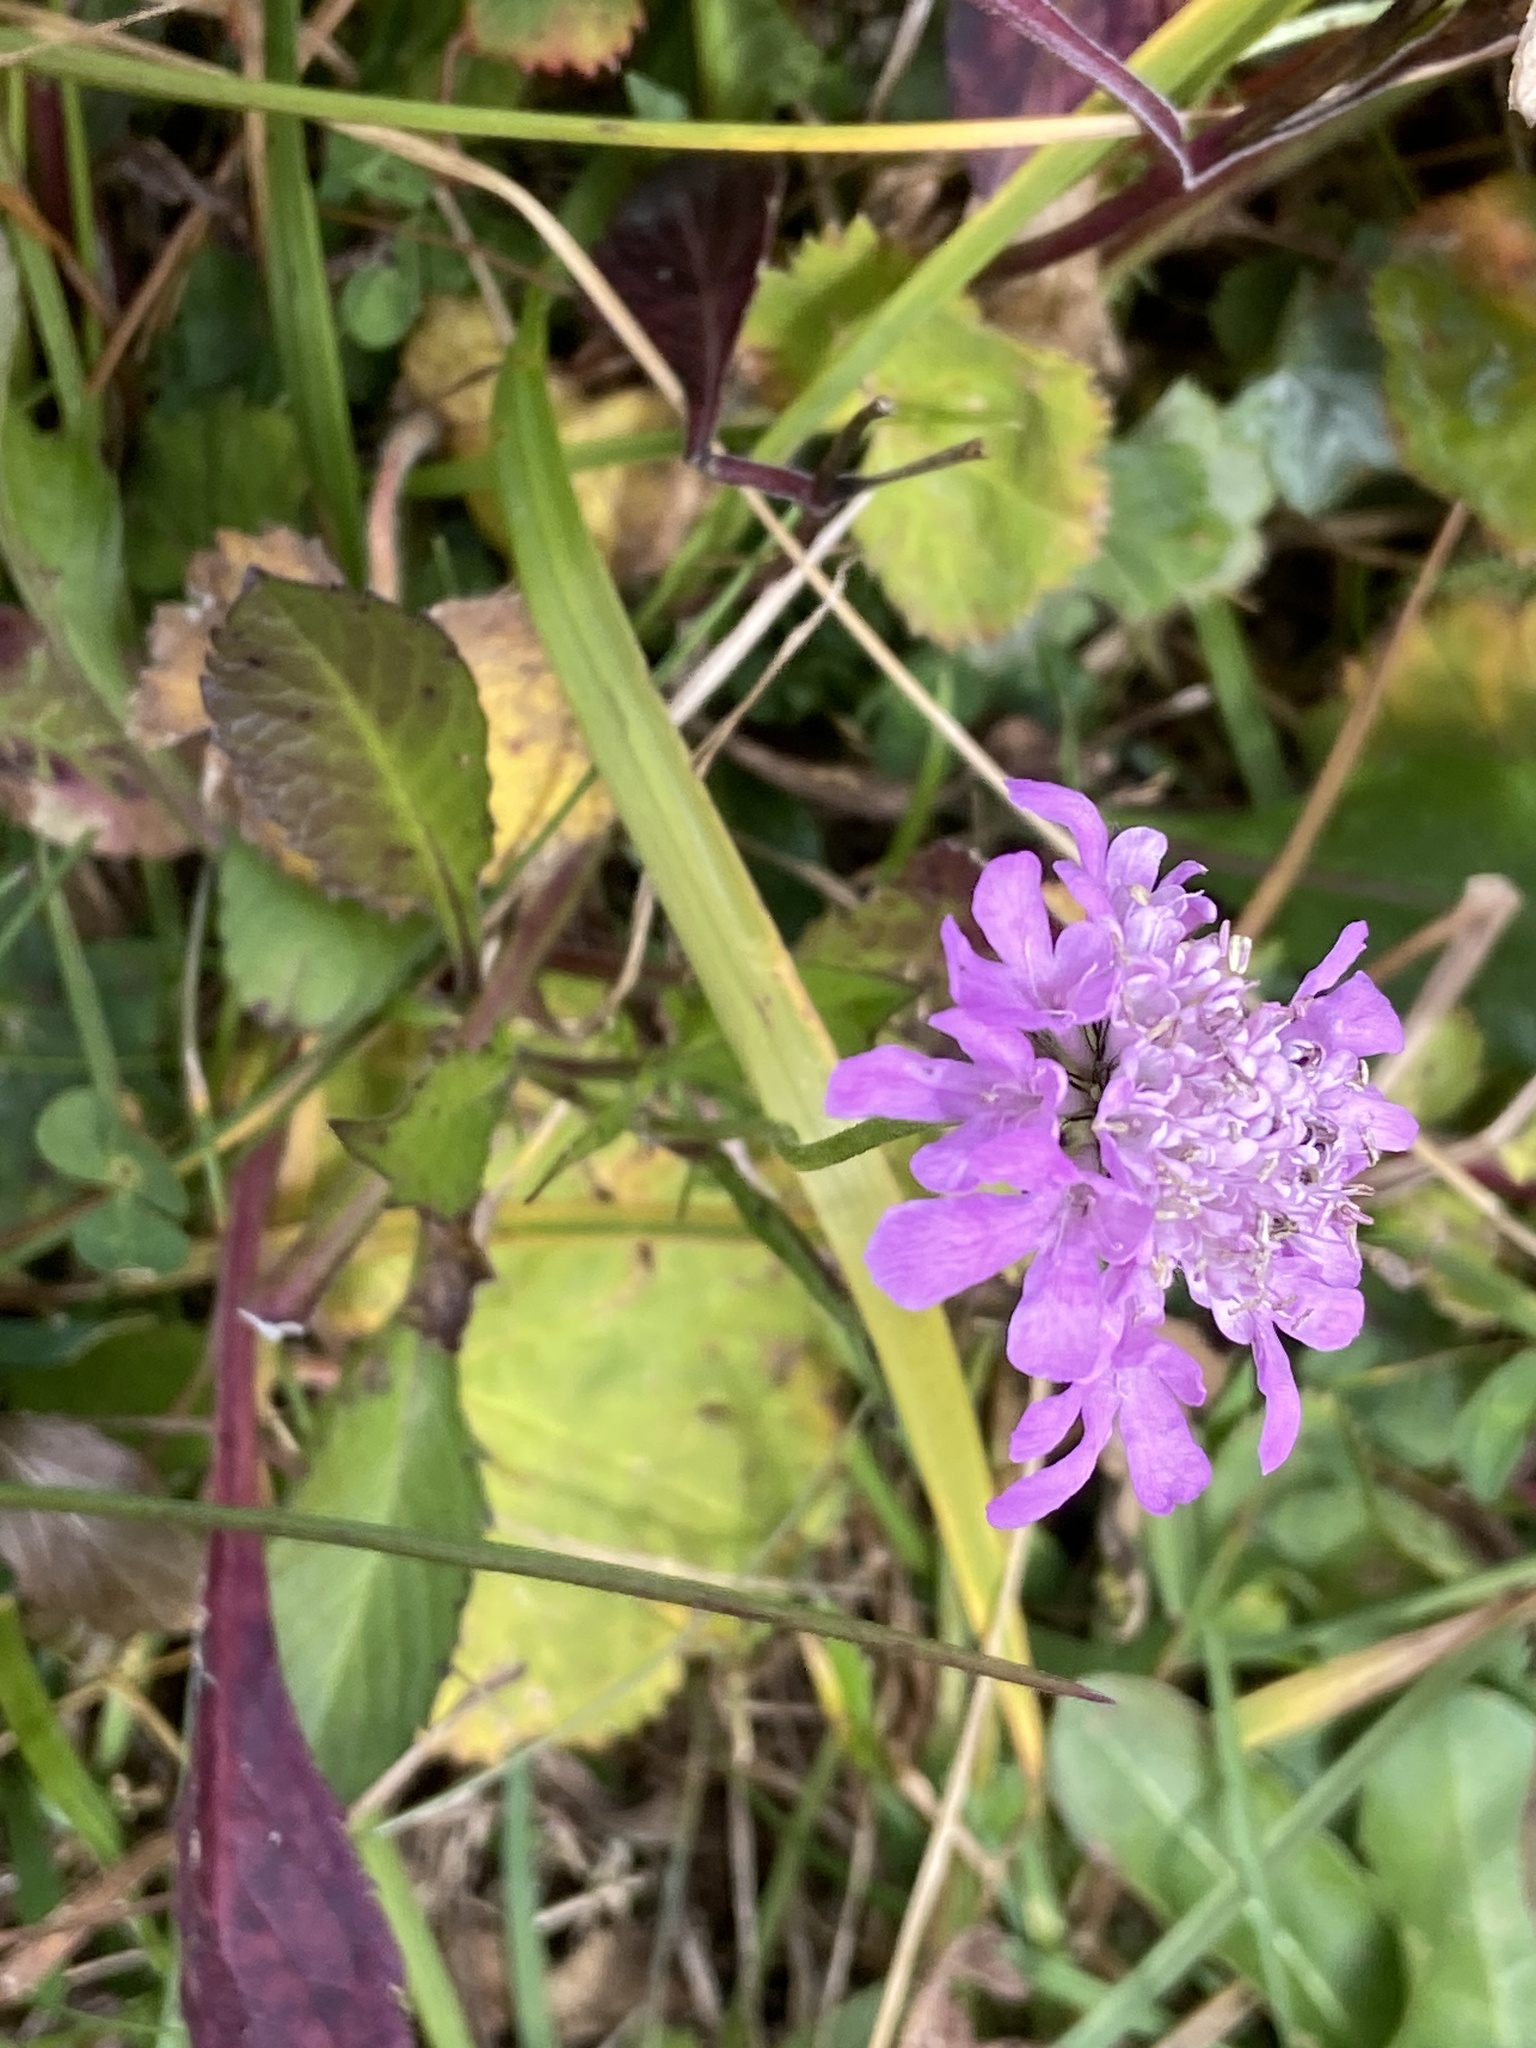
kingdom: Plantae
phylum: Tracheophyta
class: Magnoliopsida
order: Dipsacales
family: Caprifoliaceae
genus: Scabiosa
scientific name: Scabiosa lucida
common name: Shining scabious
